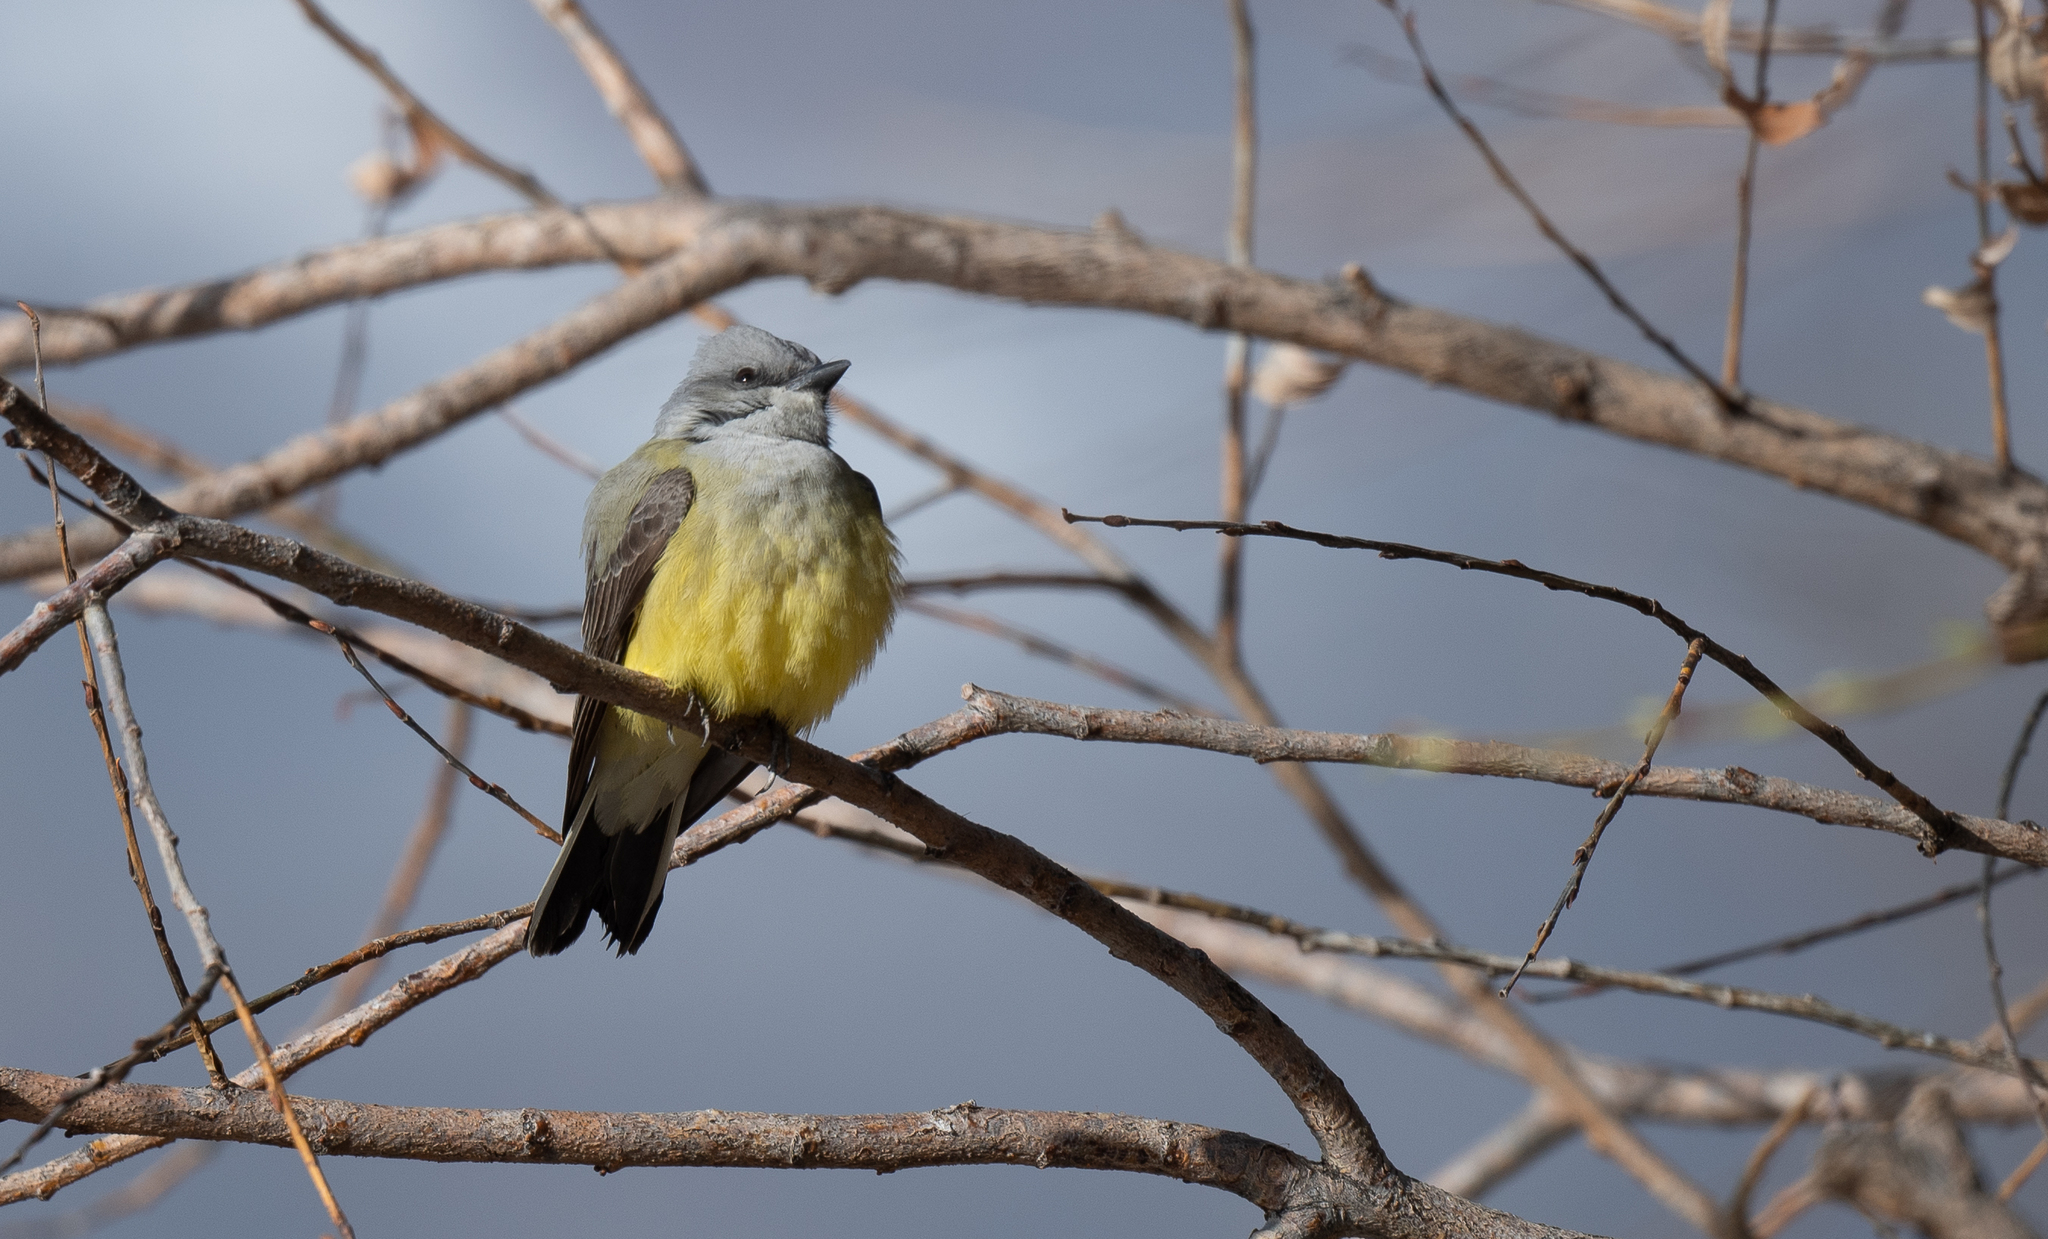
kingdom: Animalia
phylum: Chordata
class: Aves
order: Passeriformes
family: Tyrannidae
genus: Tyrannus
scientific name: Tyrannus verticalis
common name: Western kingbird
